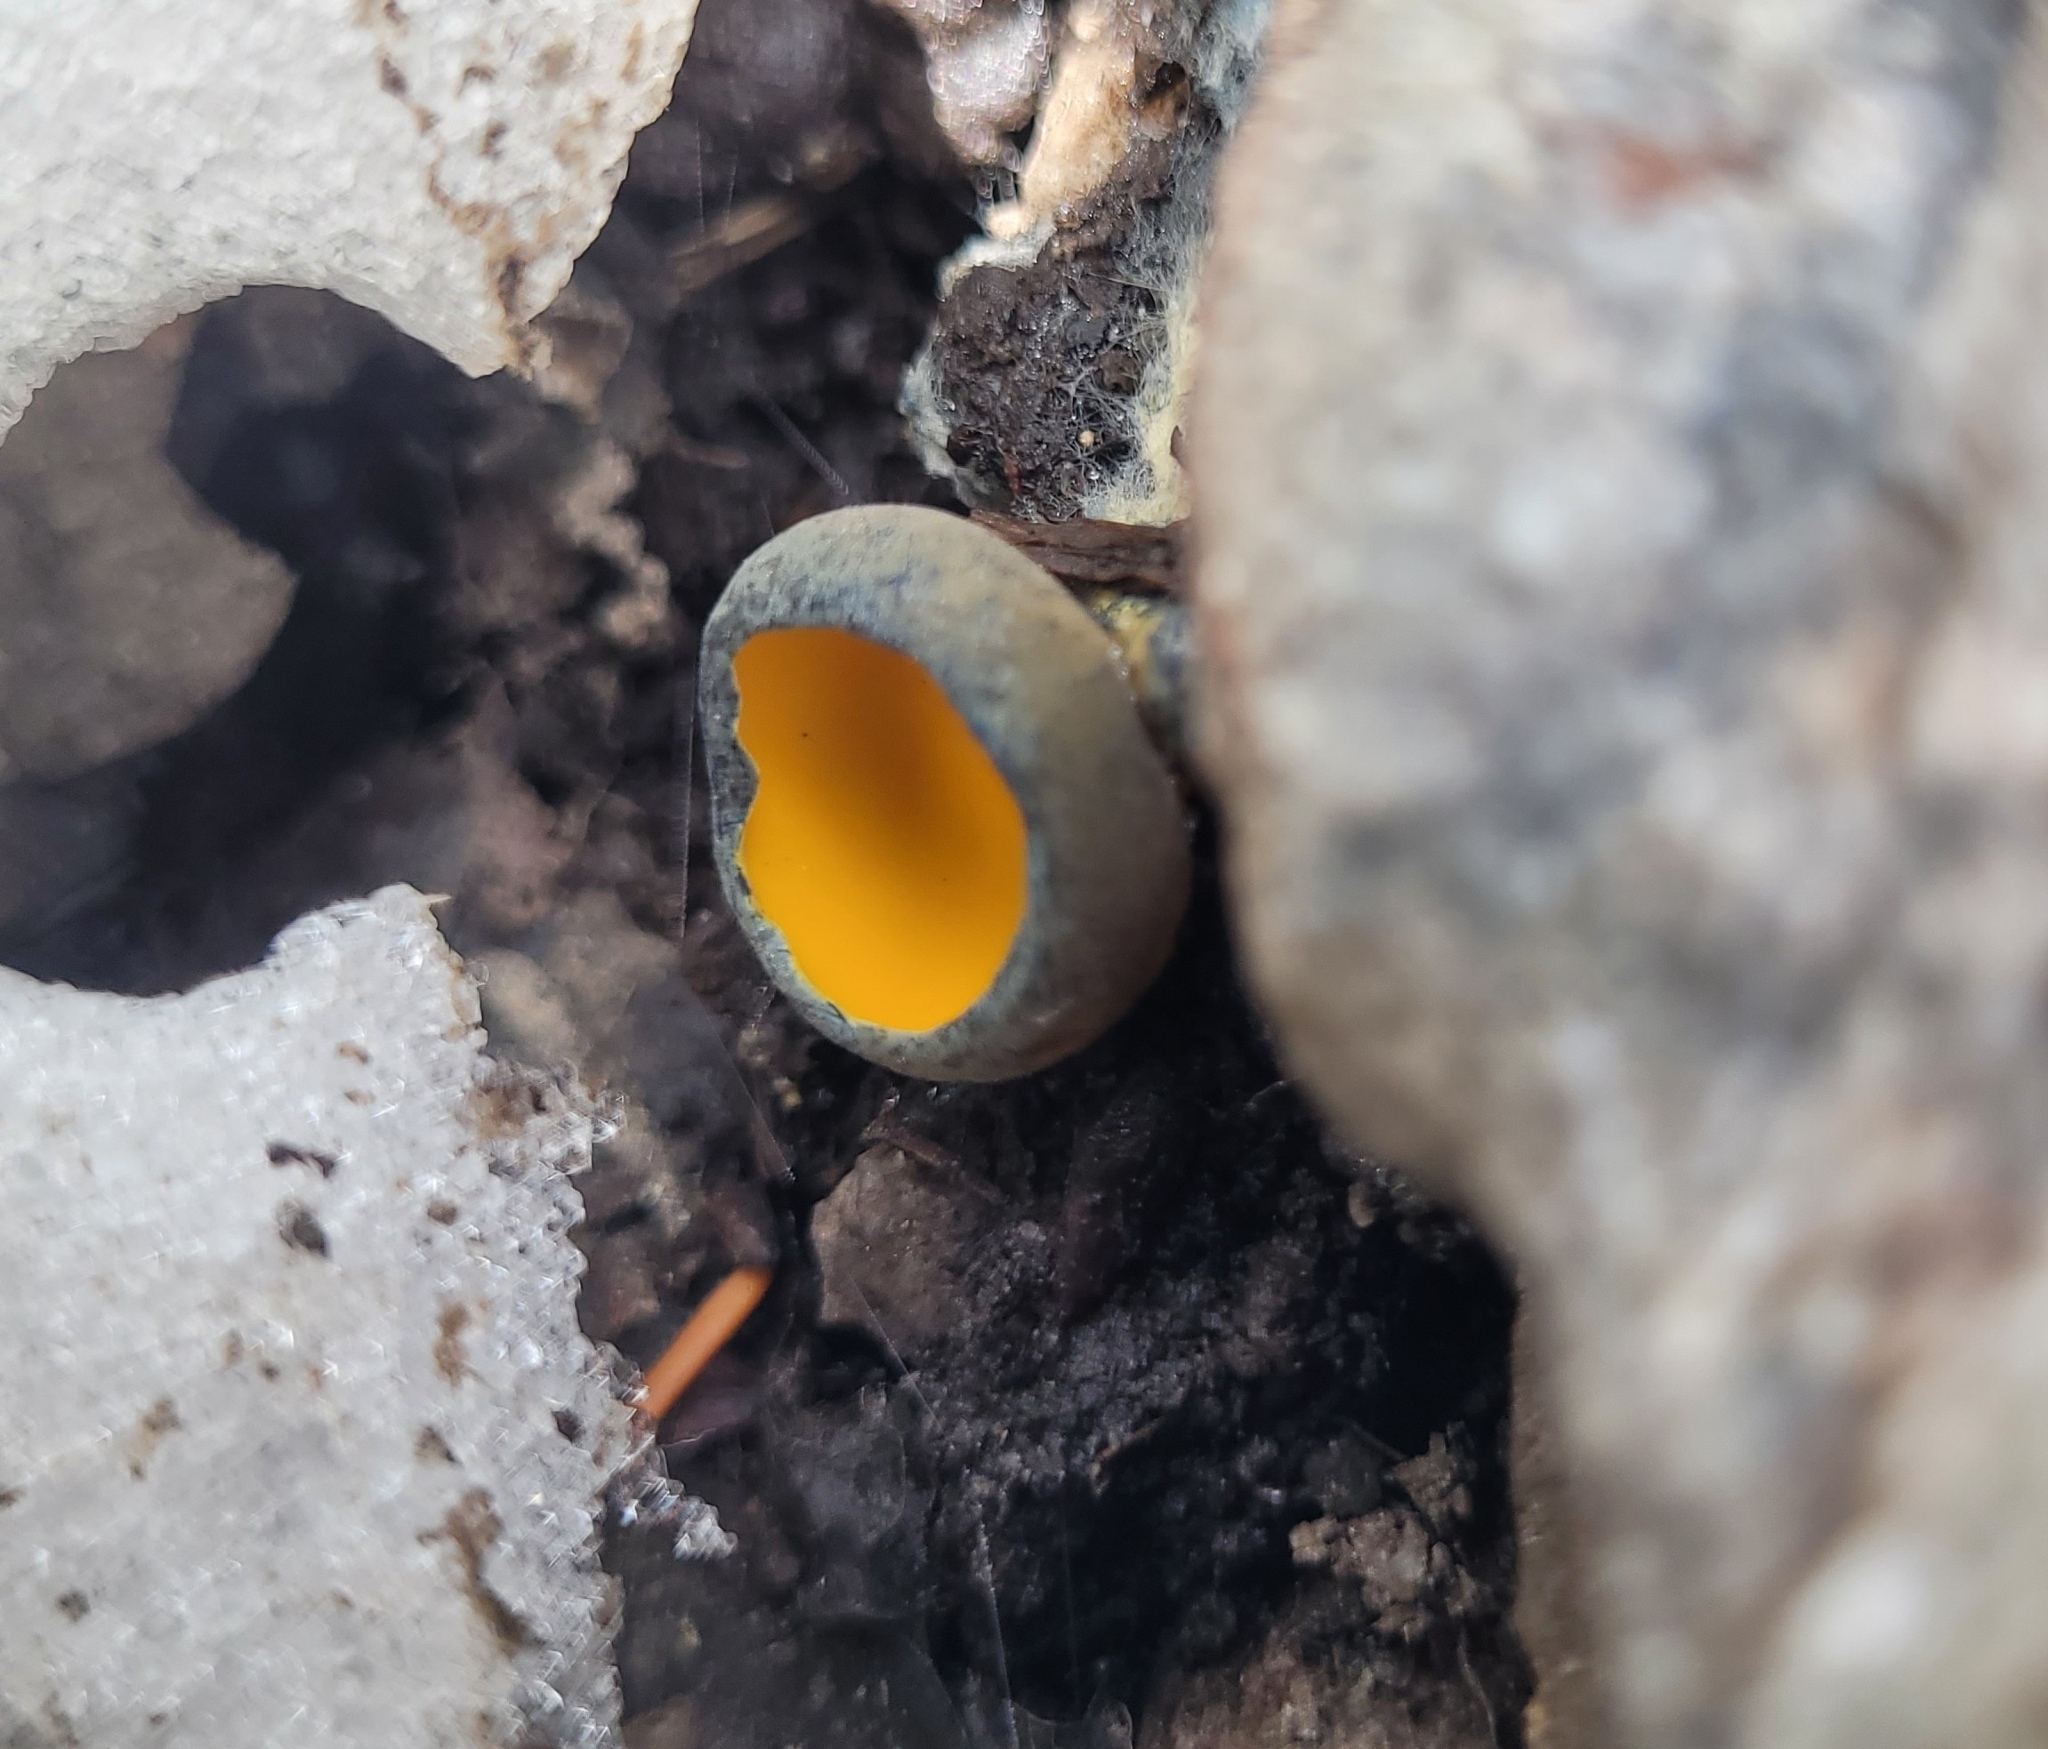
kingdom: Fungi
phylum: Ascomycota
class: Pezizomycetes
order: Pezizales
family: Caloscyphaceae
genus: Caloscypha
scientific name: Caloscypha fulgens
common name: Golden cup
